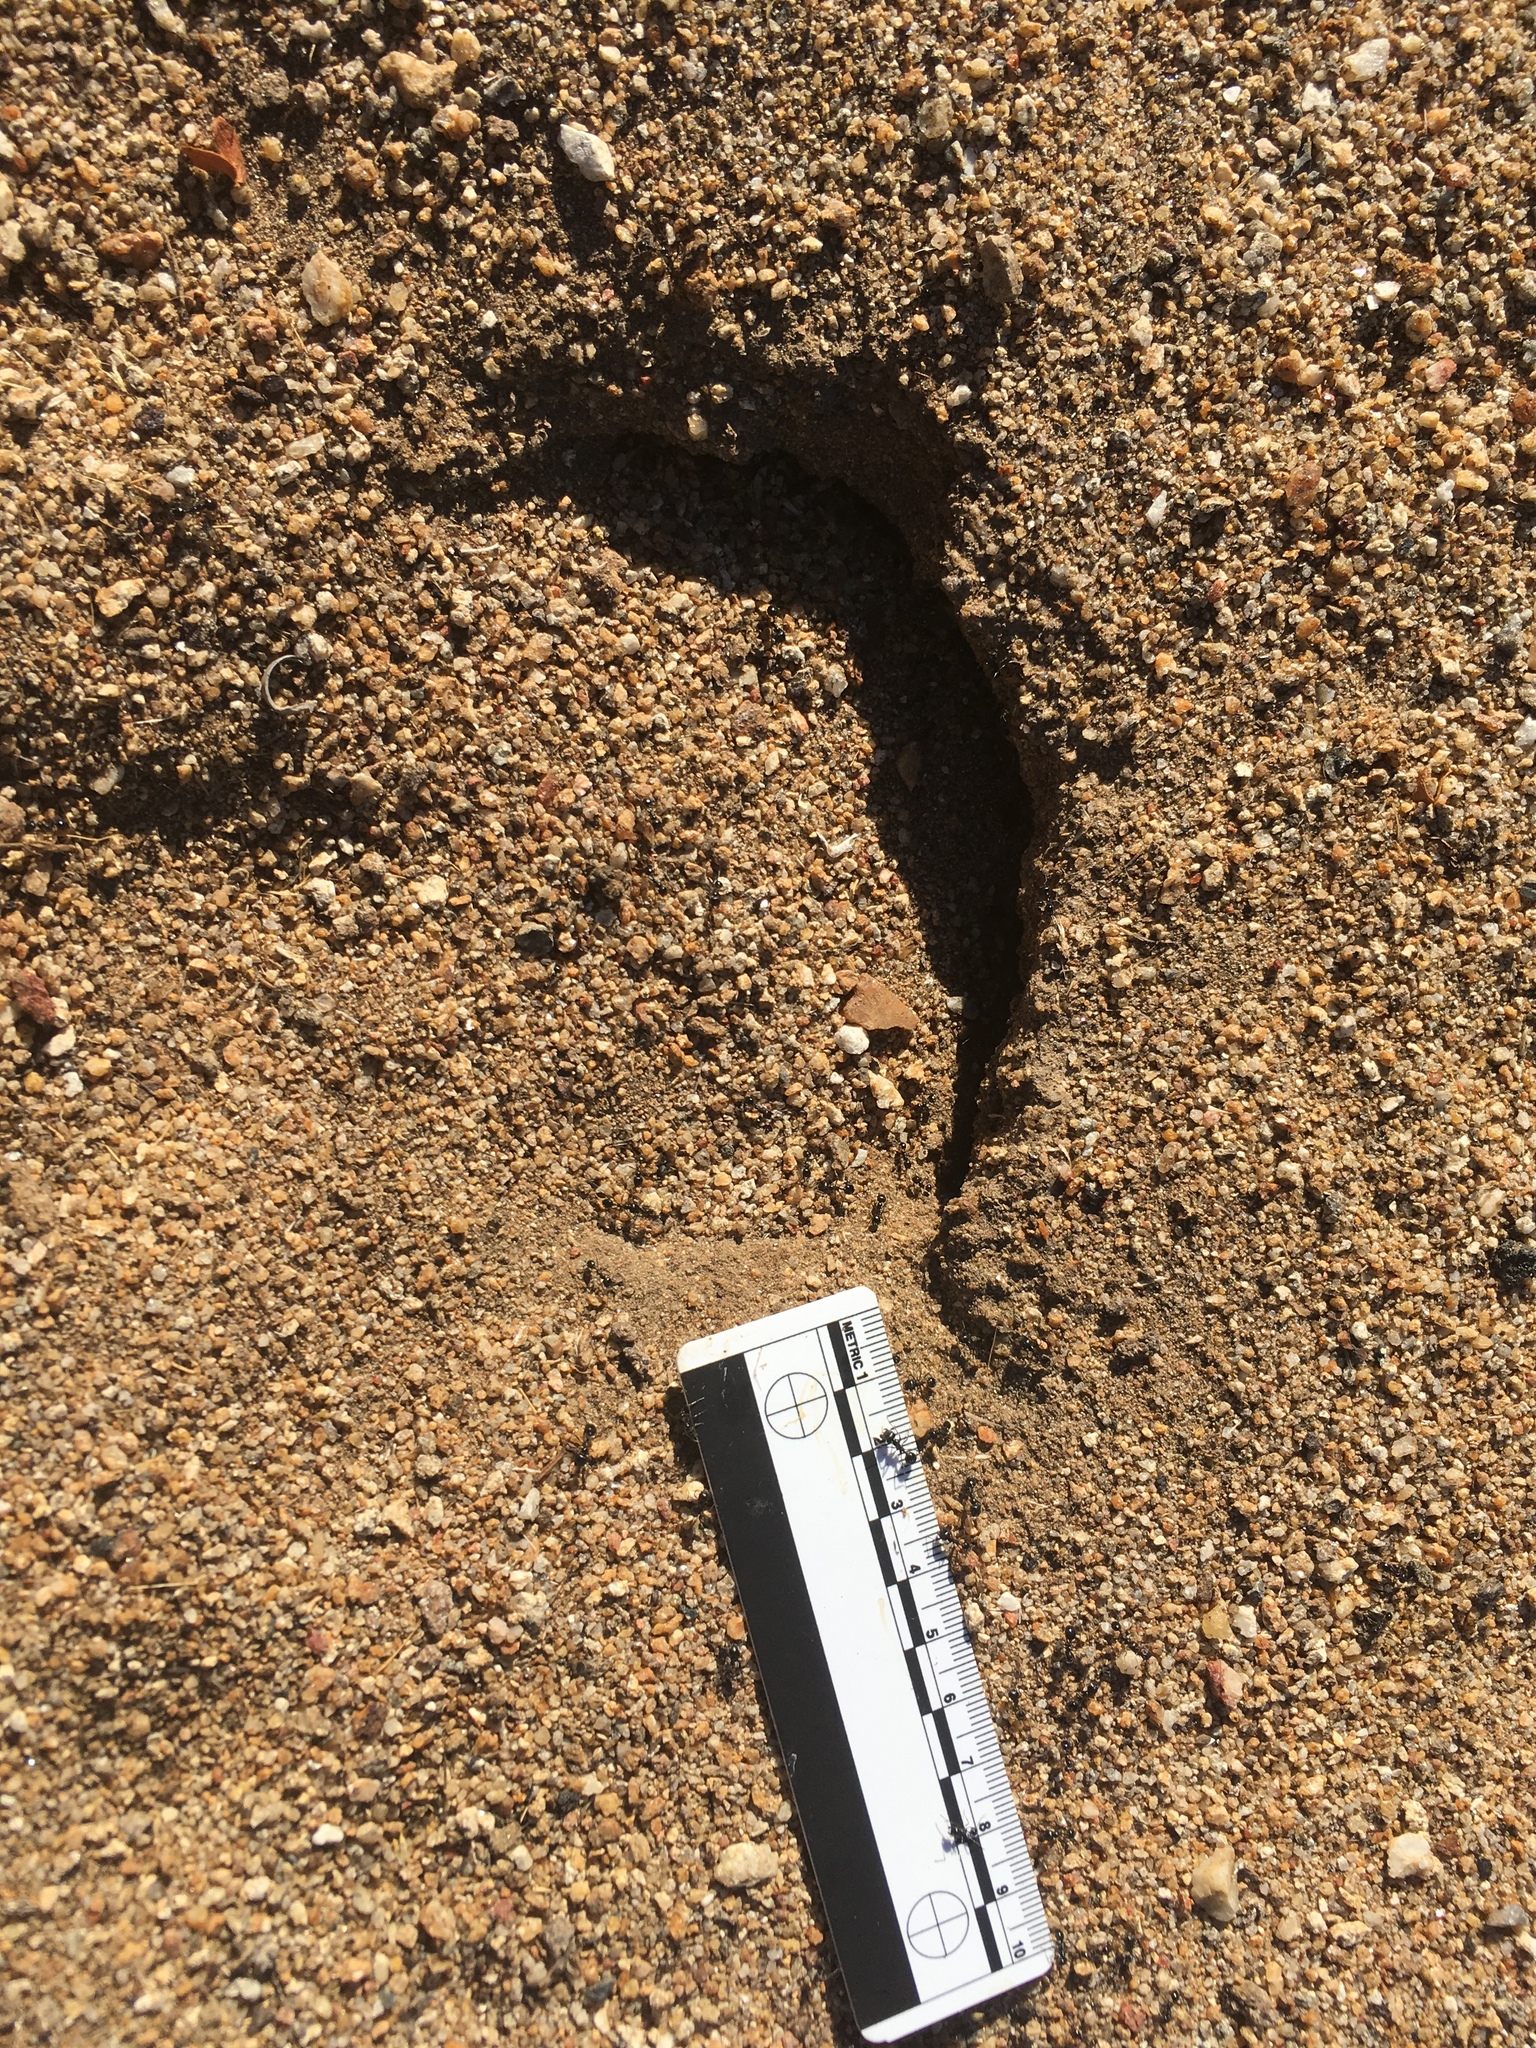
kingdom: Animalia
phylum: Arthropoda
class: Insecta
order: Hymenoptera
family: Formicidae
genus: Messor
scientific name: Messor pergandei
